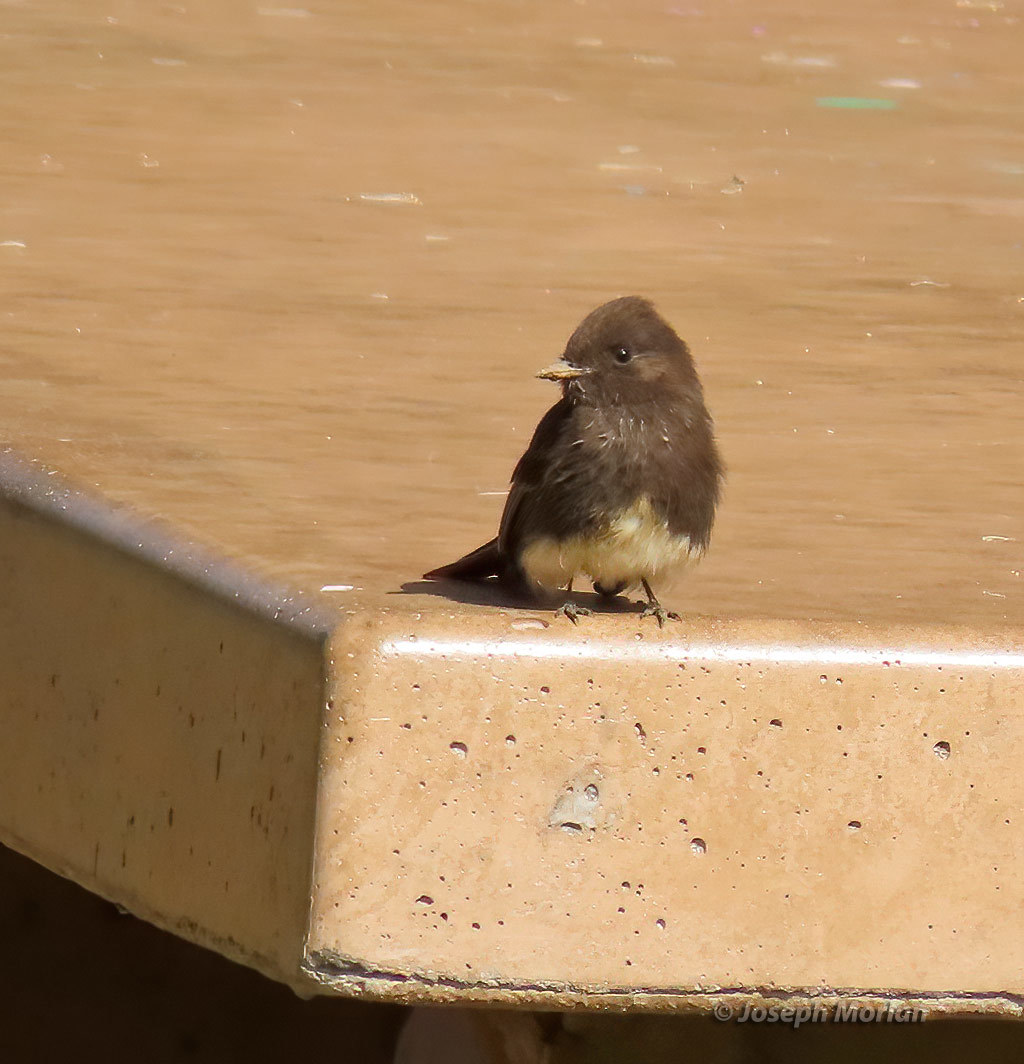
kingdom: Animalia
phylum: Chordata
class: Aves
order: Passeriformes
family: Tyrannidae
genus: Sayornis
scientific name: Sayornis nigricans
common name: Black phoebe
